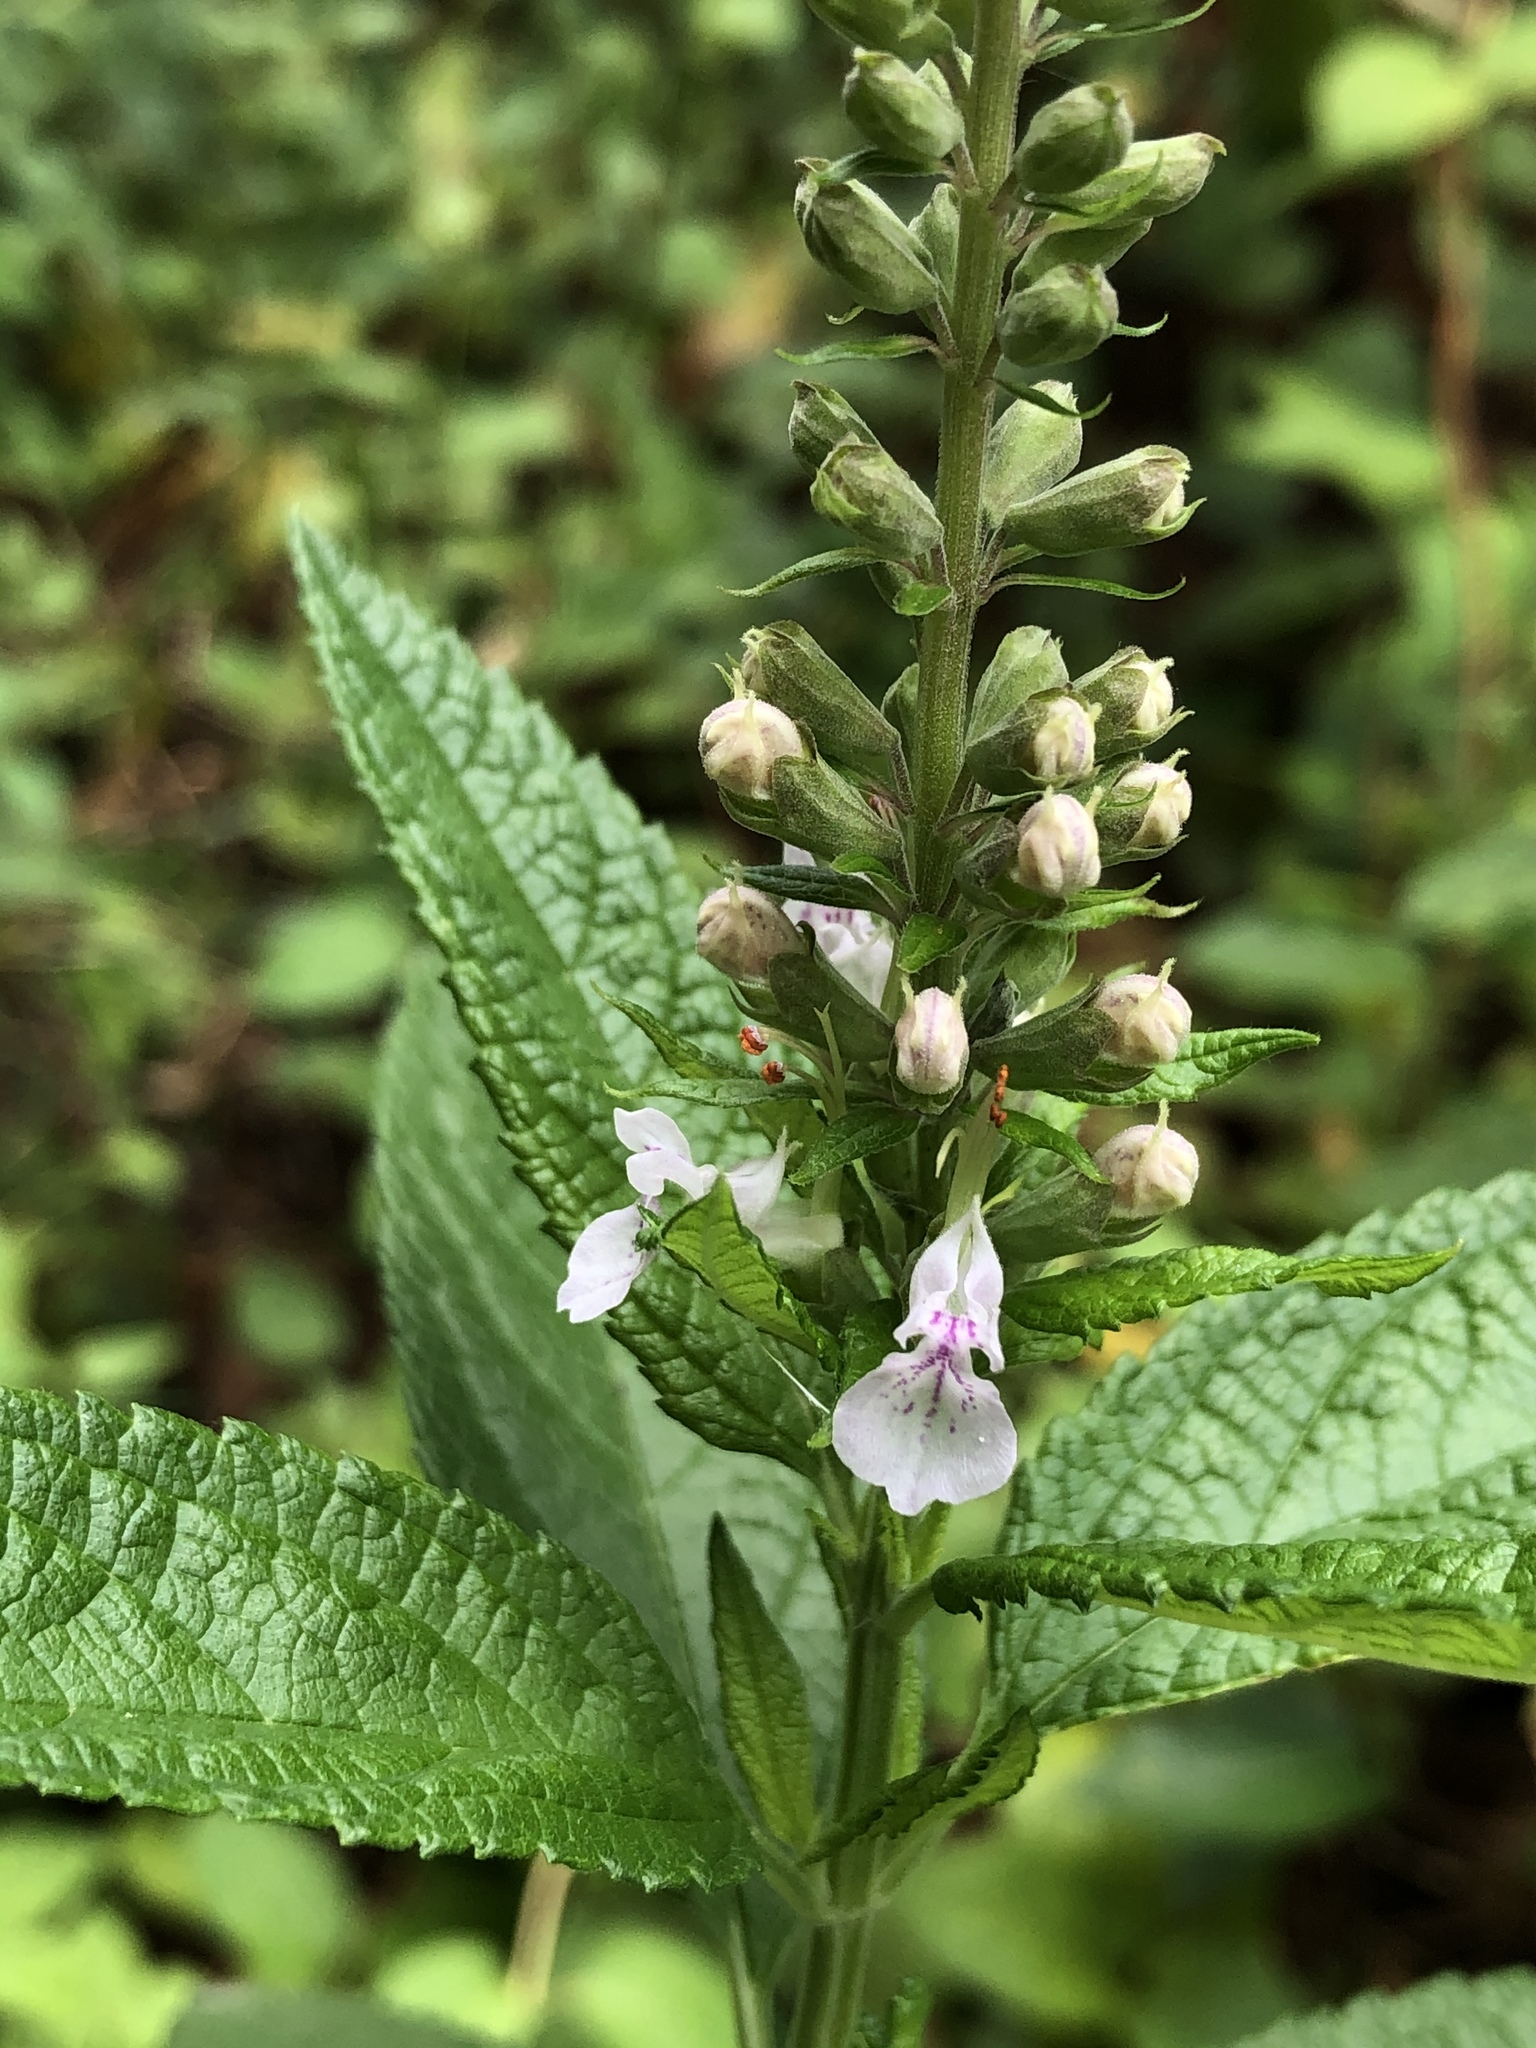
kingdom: Plantae
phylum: Tracheophyta
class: Magnoliopsida
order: Lamiales
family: Lamiaceae
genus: Teucrium
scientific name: Teucrium canadense
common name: American germander
